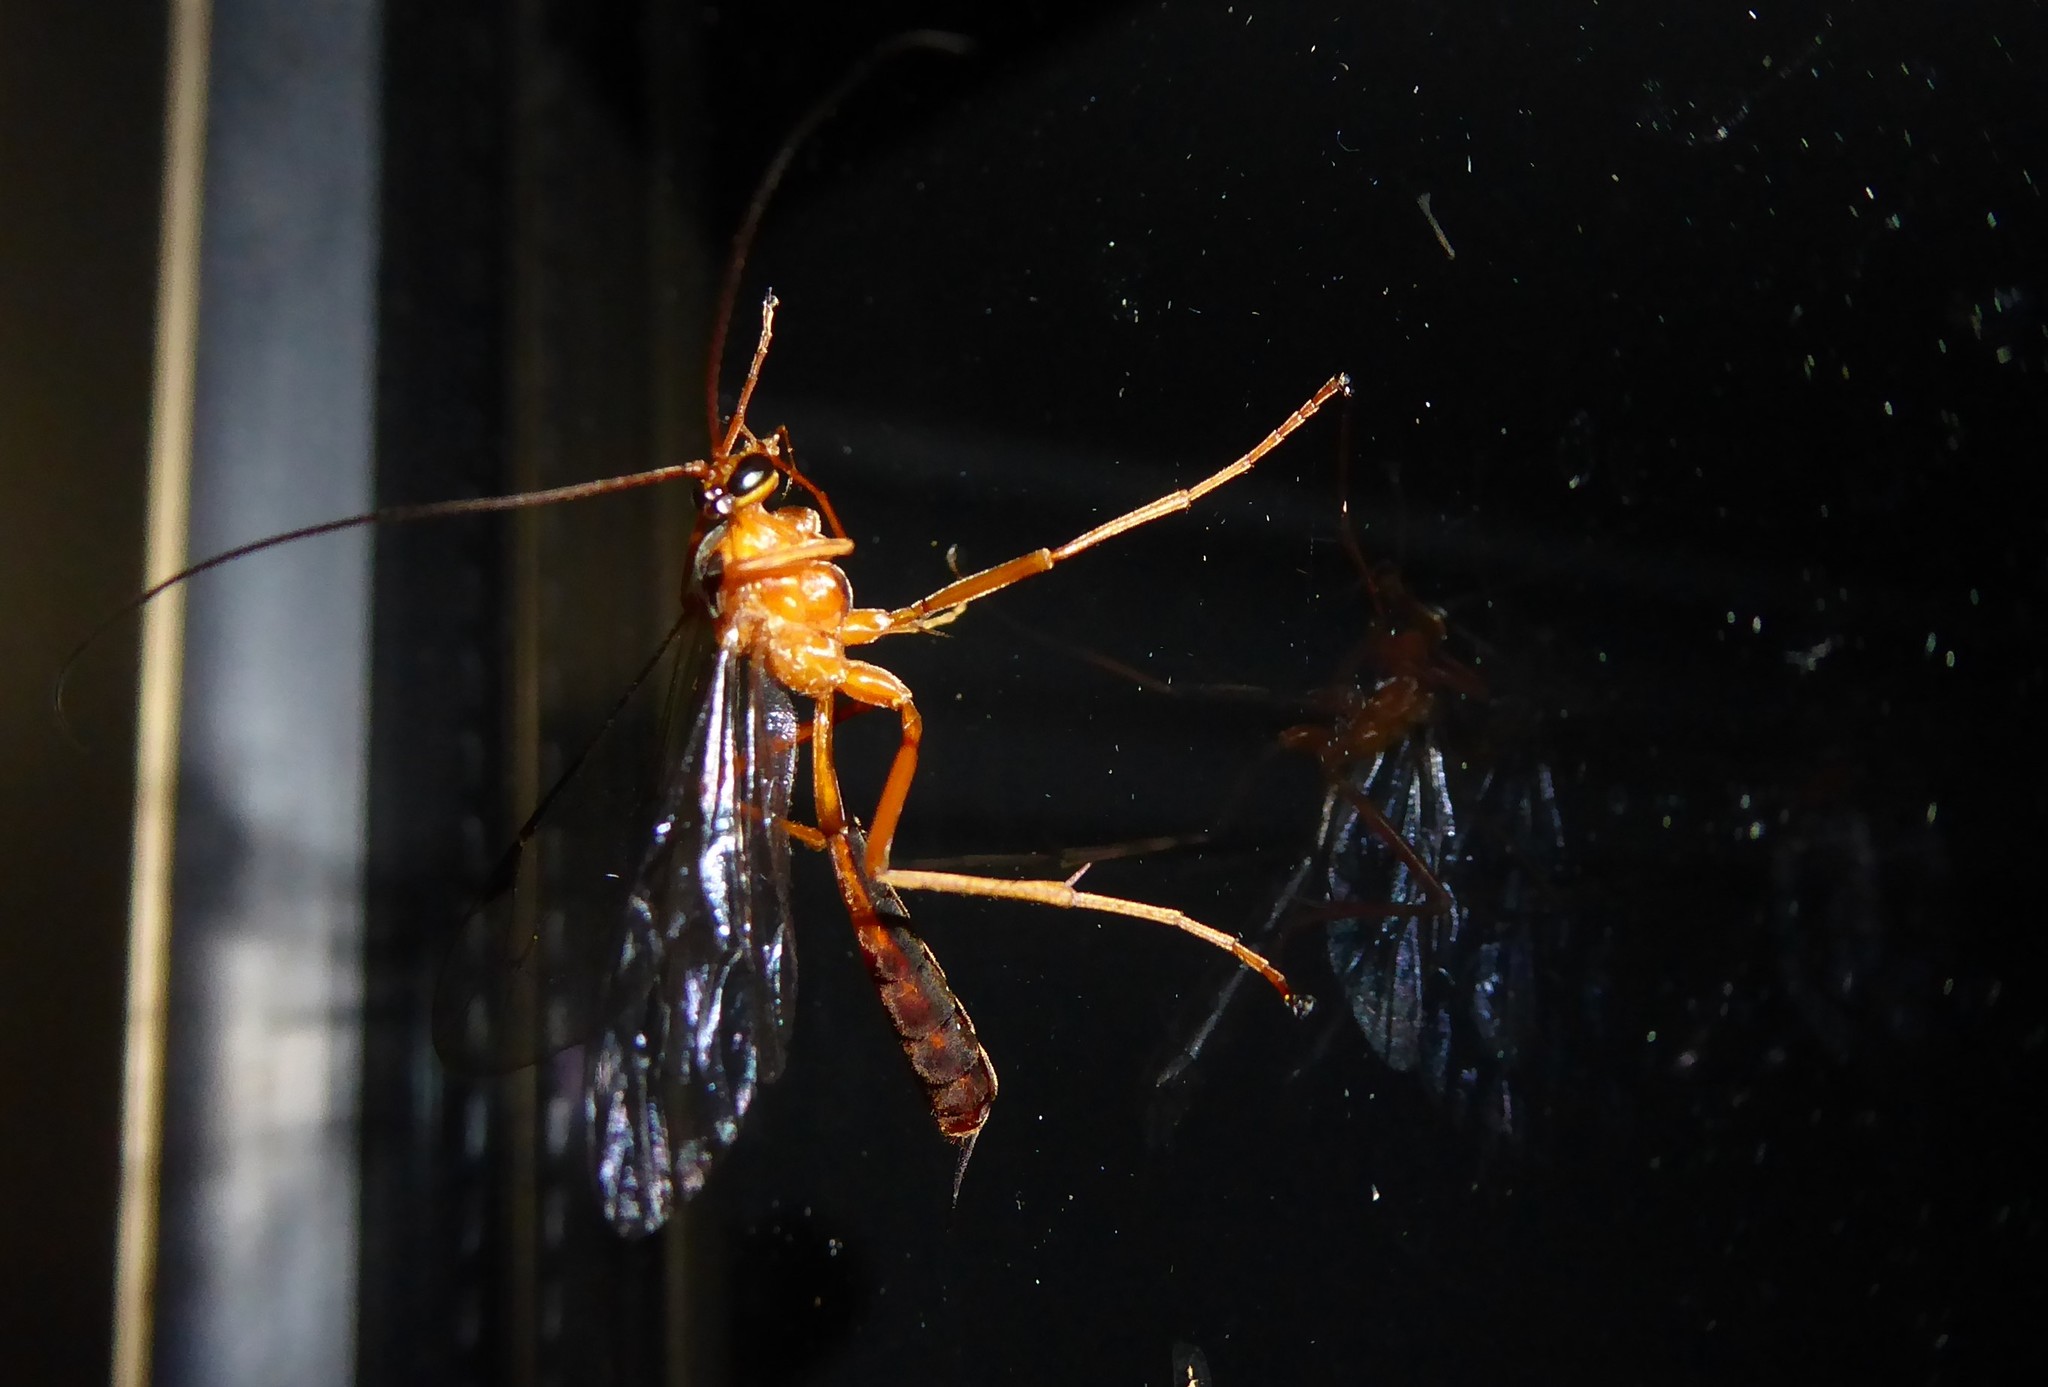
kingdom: Animalia
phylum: Arthropoda
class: Insecta
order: Hymenoptera
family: Ichneumonidae
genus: Netelia
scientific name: Netelia ephippiata
